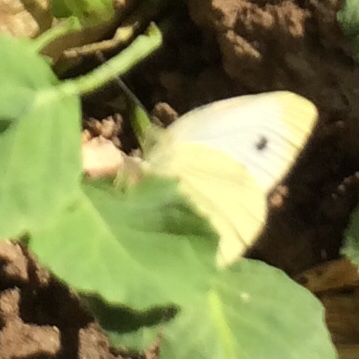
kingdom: Animalia
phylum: Arthropoda
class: Insecta
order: Lepidoptera
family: Pieridae
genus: Pieris
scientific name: Pieris rapae
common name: Small white
